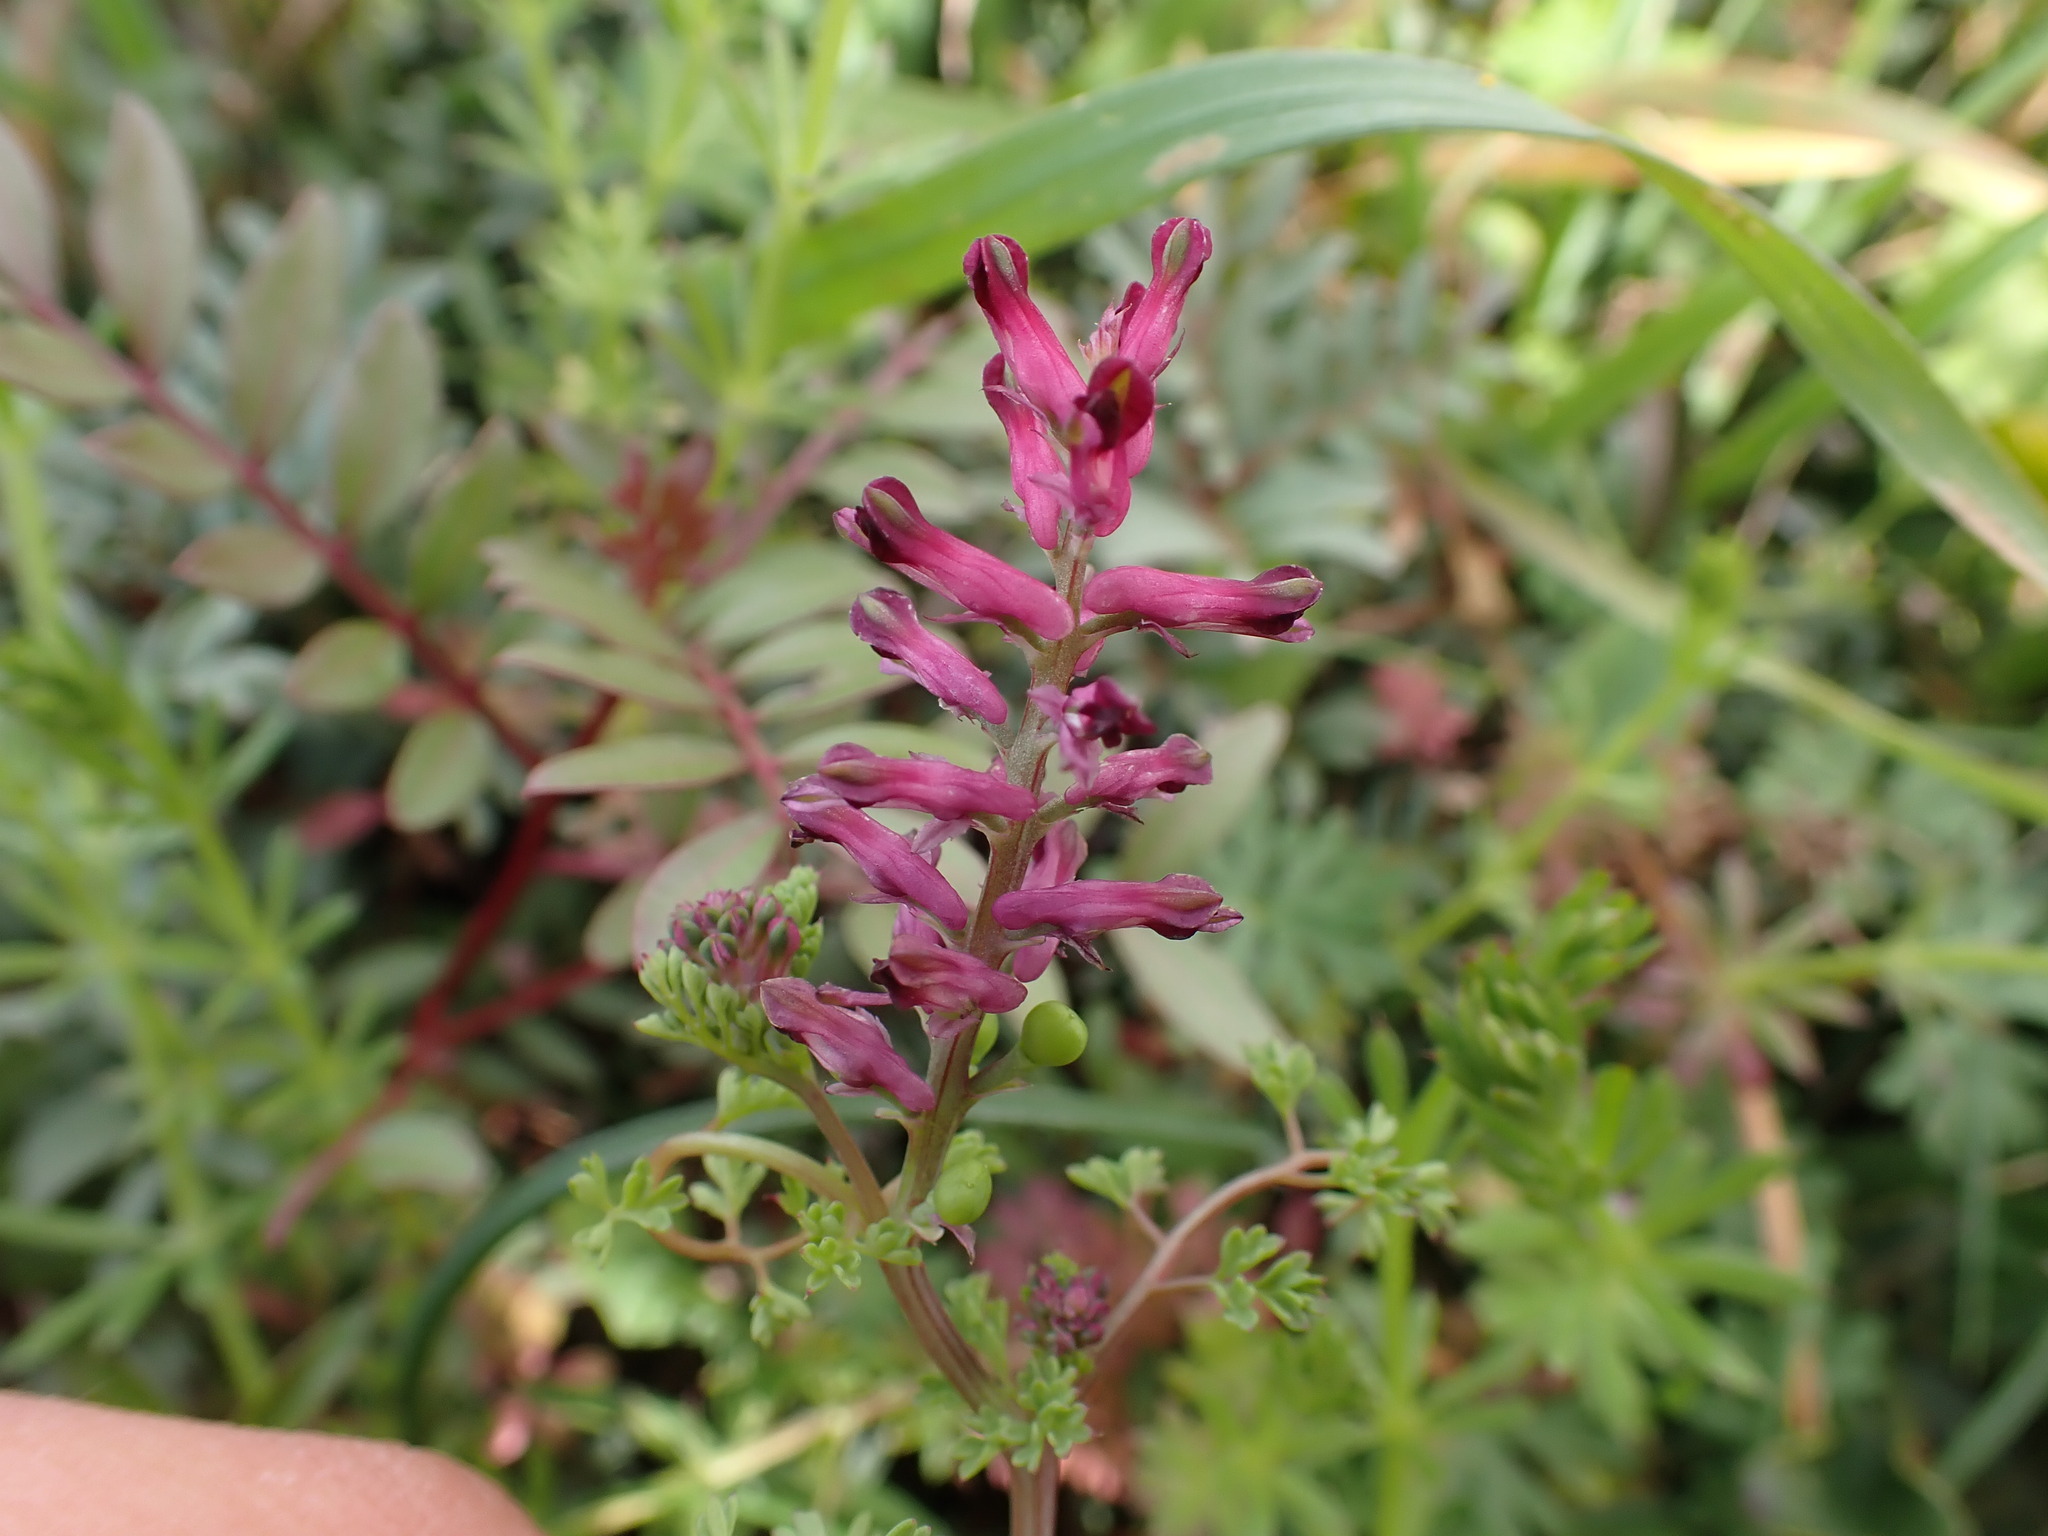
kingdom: Plantae
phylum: Tracheophyta
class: Magnoliopsida
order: Ranunculales
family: Papaveraceae
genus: Fumaria
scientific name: Fumaria officinalis
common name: Common fumitory
